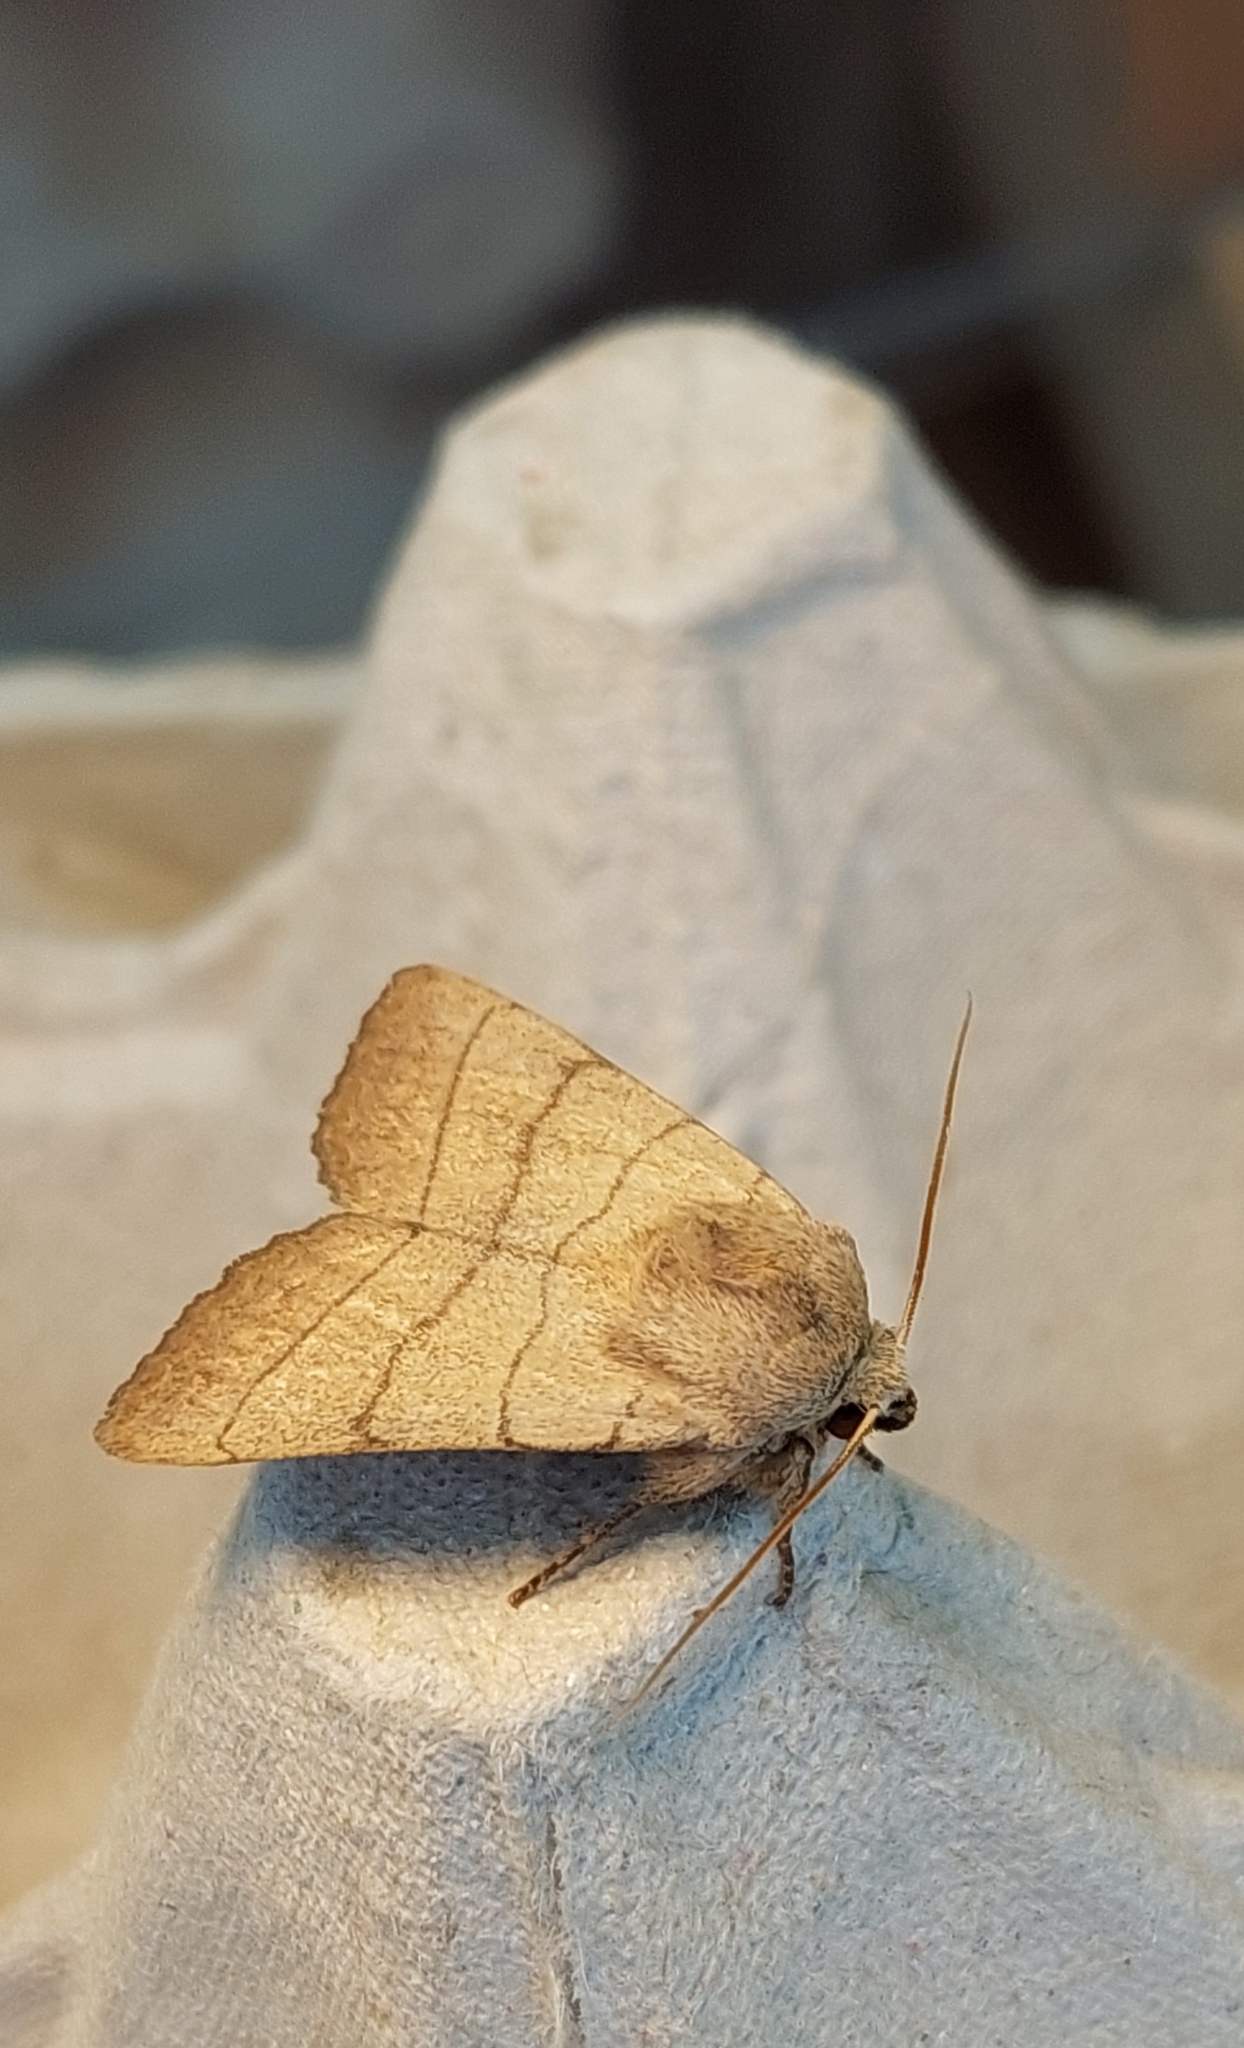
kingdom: Animalia
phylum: Arthropoda
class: Insecta
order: Lepidoptera
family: Noctuidae
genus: Charanyca
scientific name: Charanyca trigrammica
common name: Treble lines
